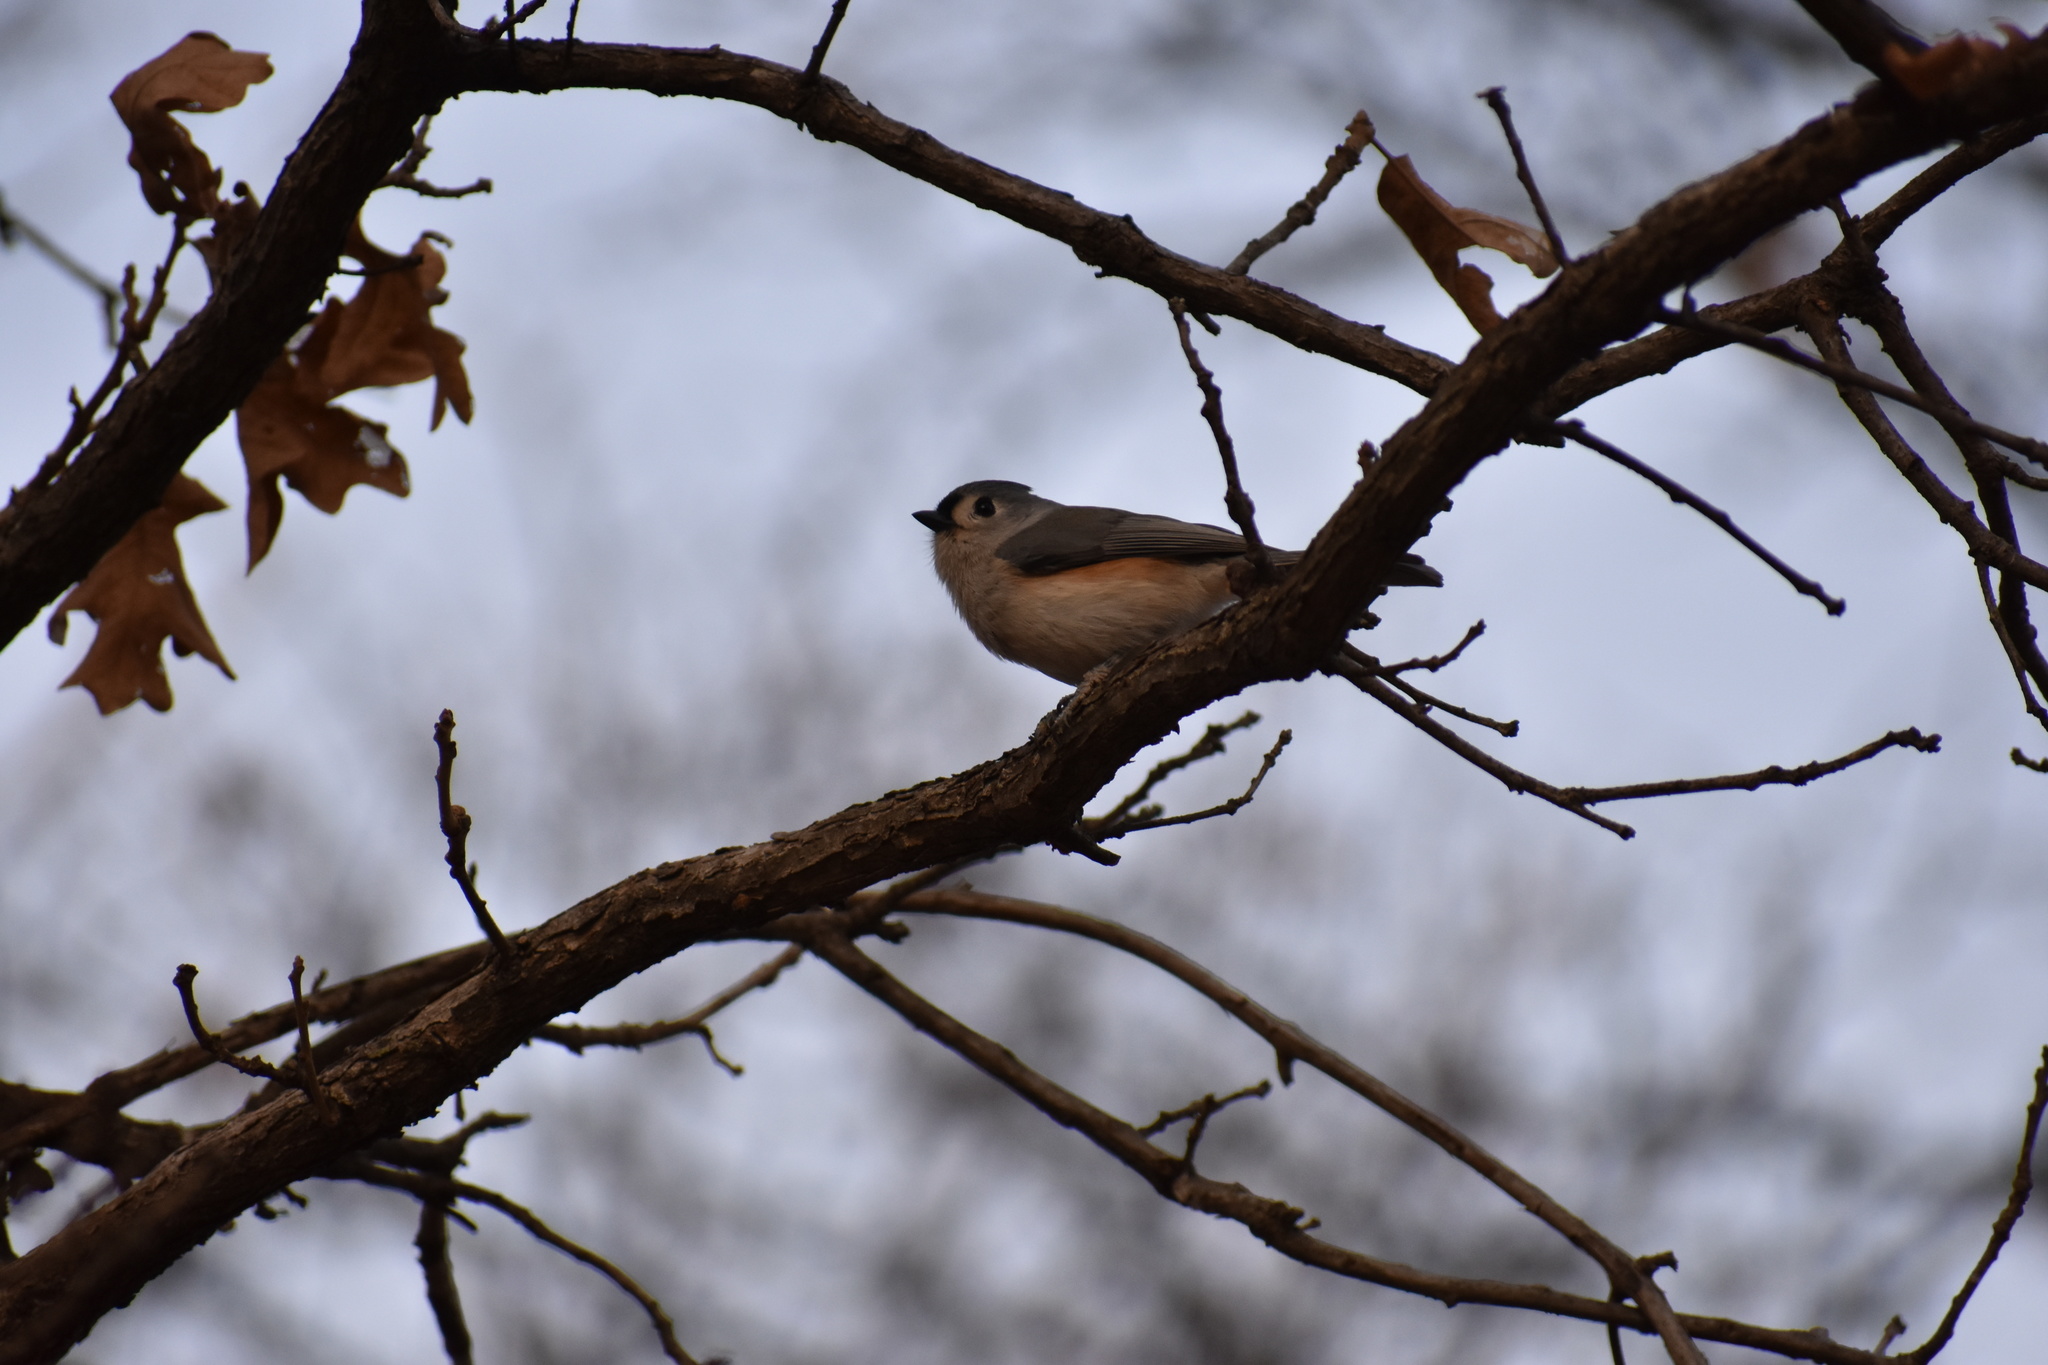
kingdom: Animalia
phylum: Chordata
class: Aves
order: Passeriformes
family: Paridae
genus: Baeolophus
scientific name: Baeolophus bicolor
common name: Tufted titmouse
